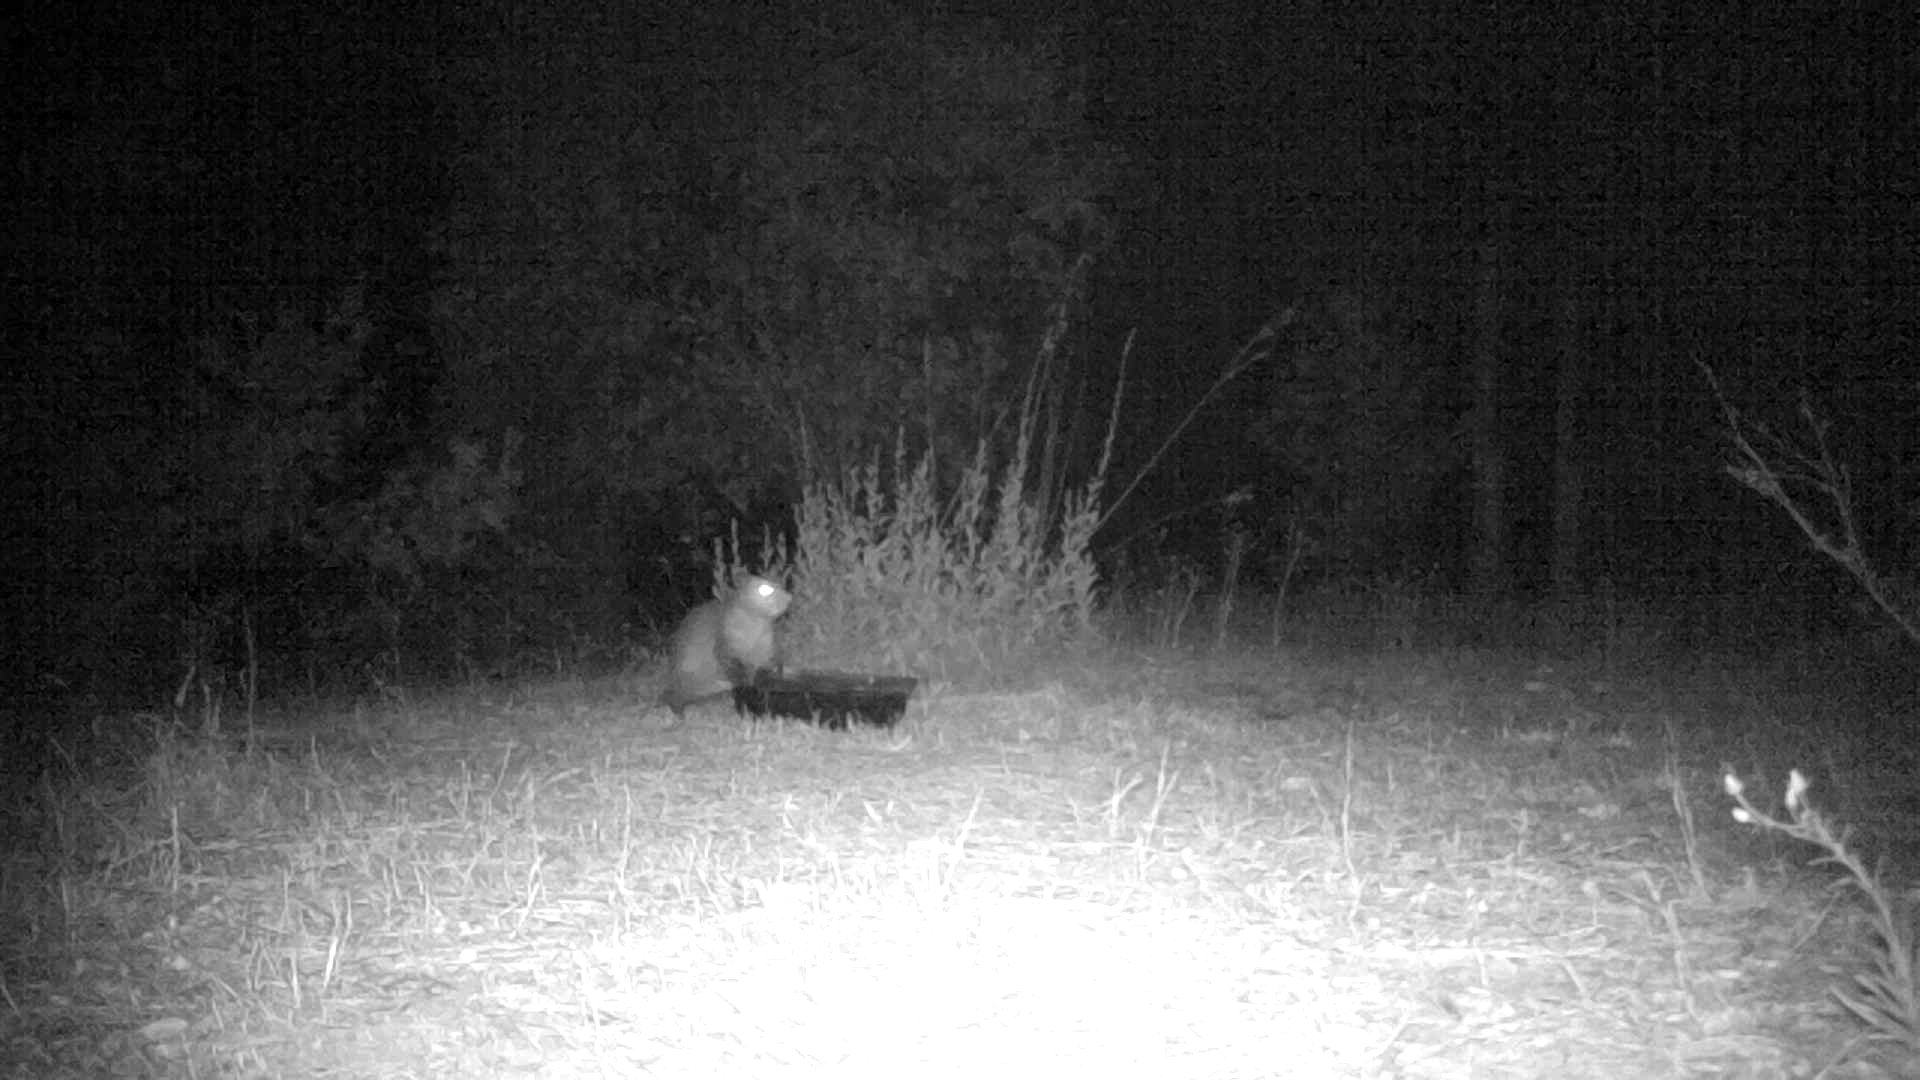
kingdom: Animalia
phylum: Chordata
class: Mammalia
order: Didelphimorphia
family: Didelphidae
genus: Didelphis
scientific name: Didelphis virginiana
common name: Virginia opossum
